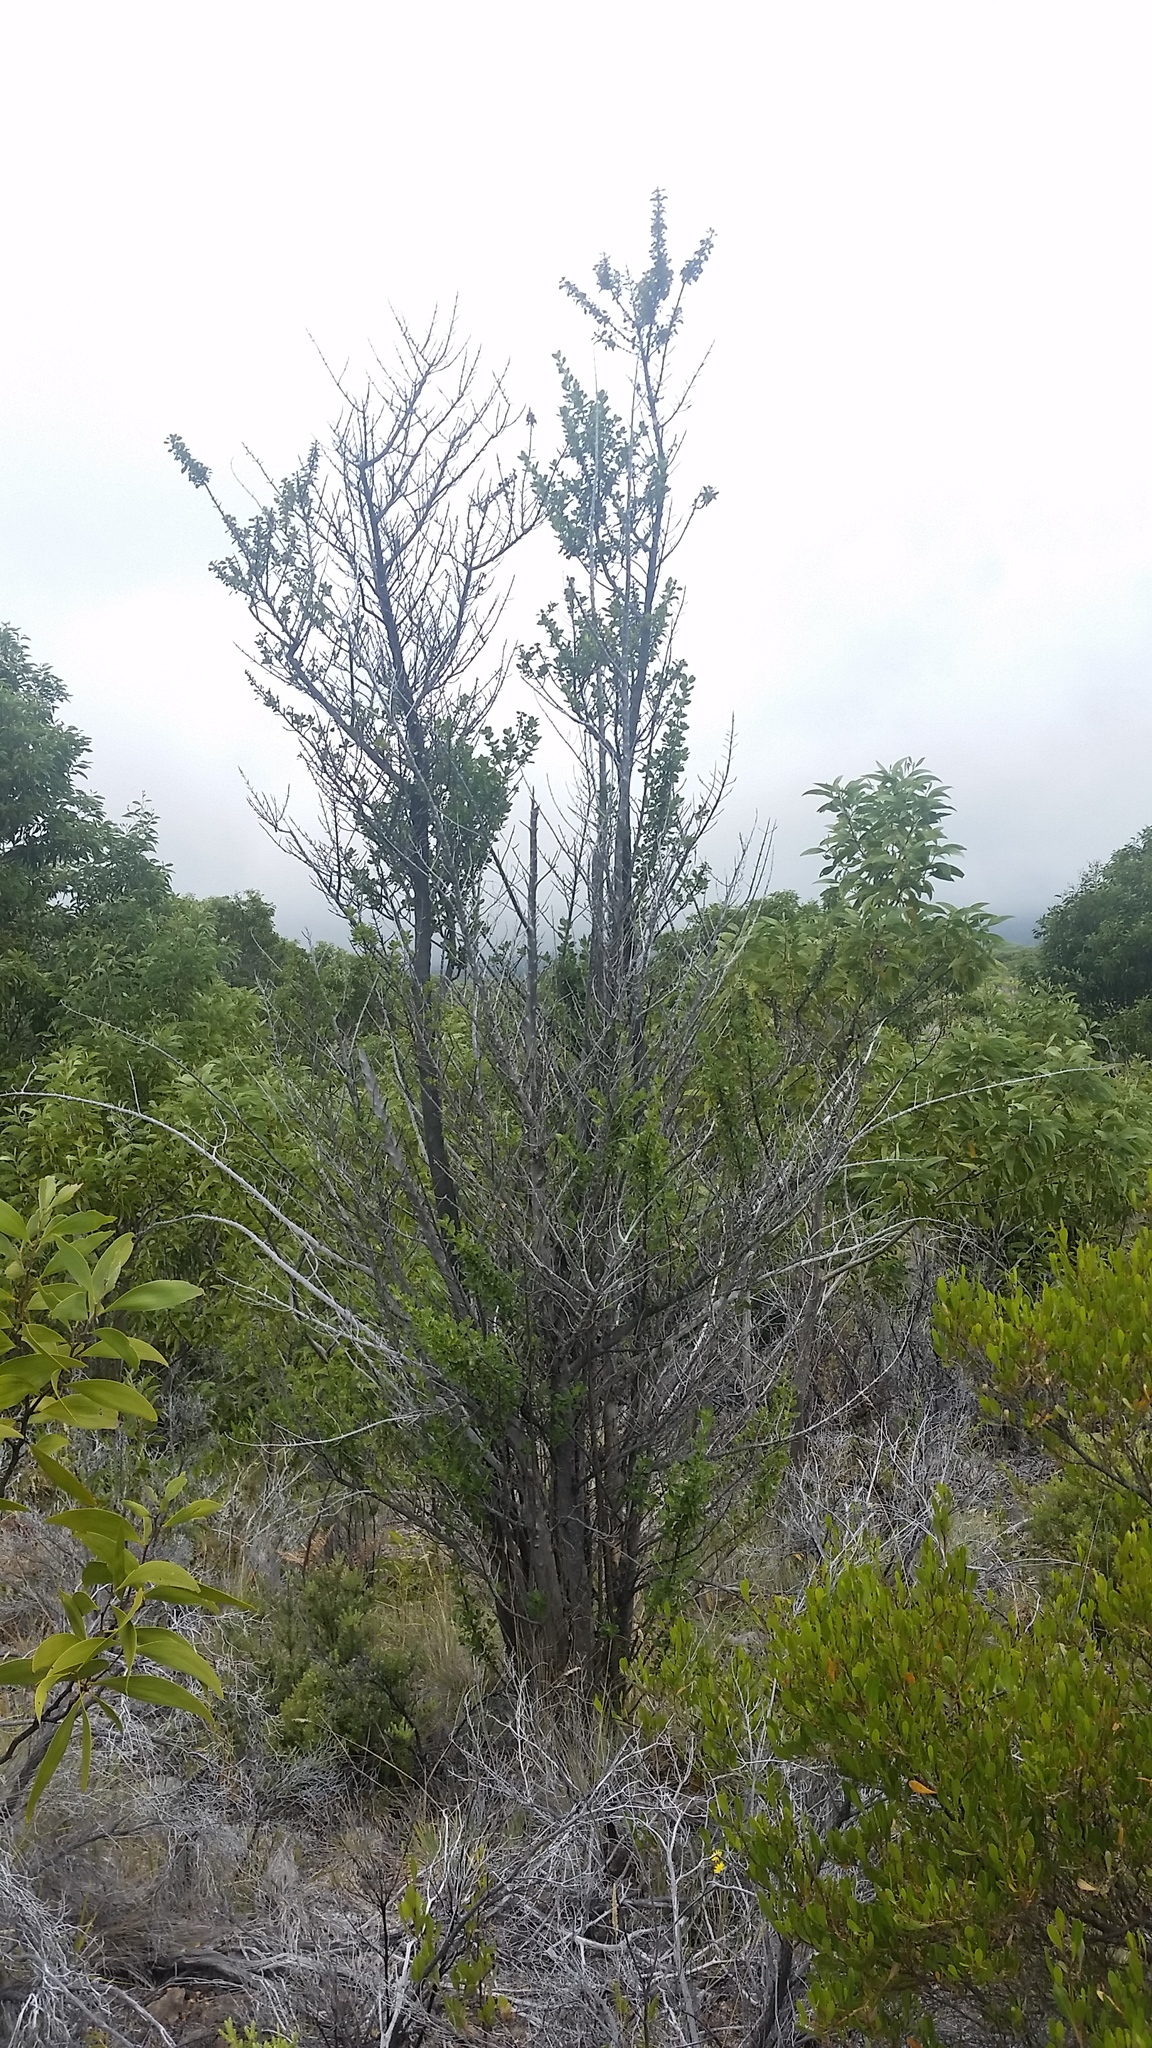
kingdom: Plantae
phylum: Tracheophyta
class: Magnoliopsida
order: Gentianales
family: Rubiaceae
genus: Coprosma
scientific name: Coprosma montana
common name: Alpine mirror plant
